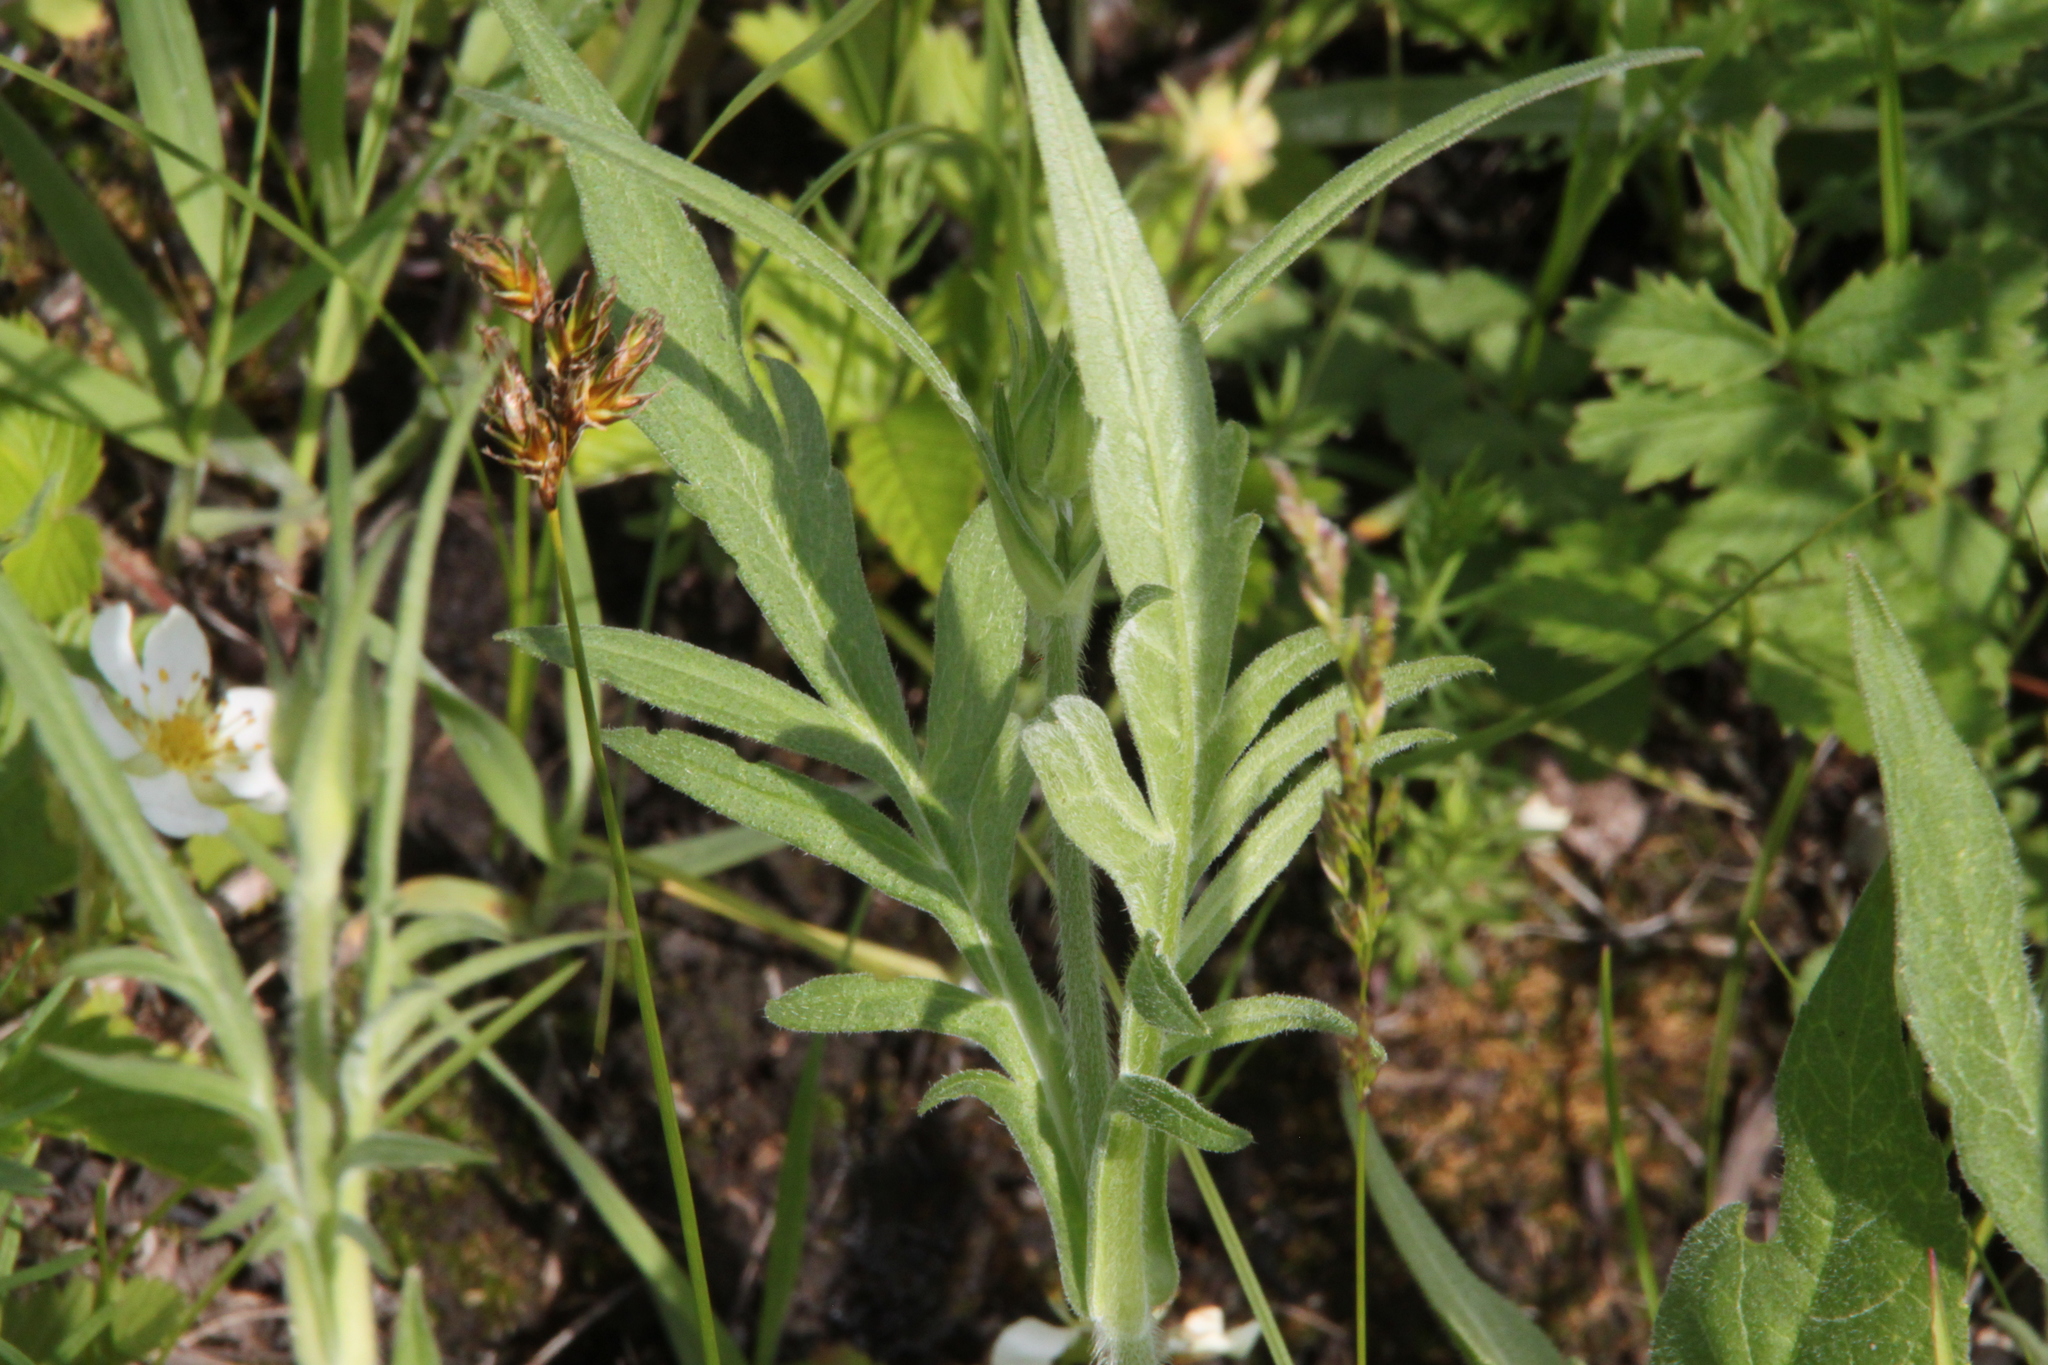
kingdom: Plantae
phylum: Tracheophyta
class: Magnoliopsida
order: Dipsacales
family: Caprifoliaceae
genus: Knautia
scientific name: Knautia arvensis
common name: Field scabiosa
